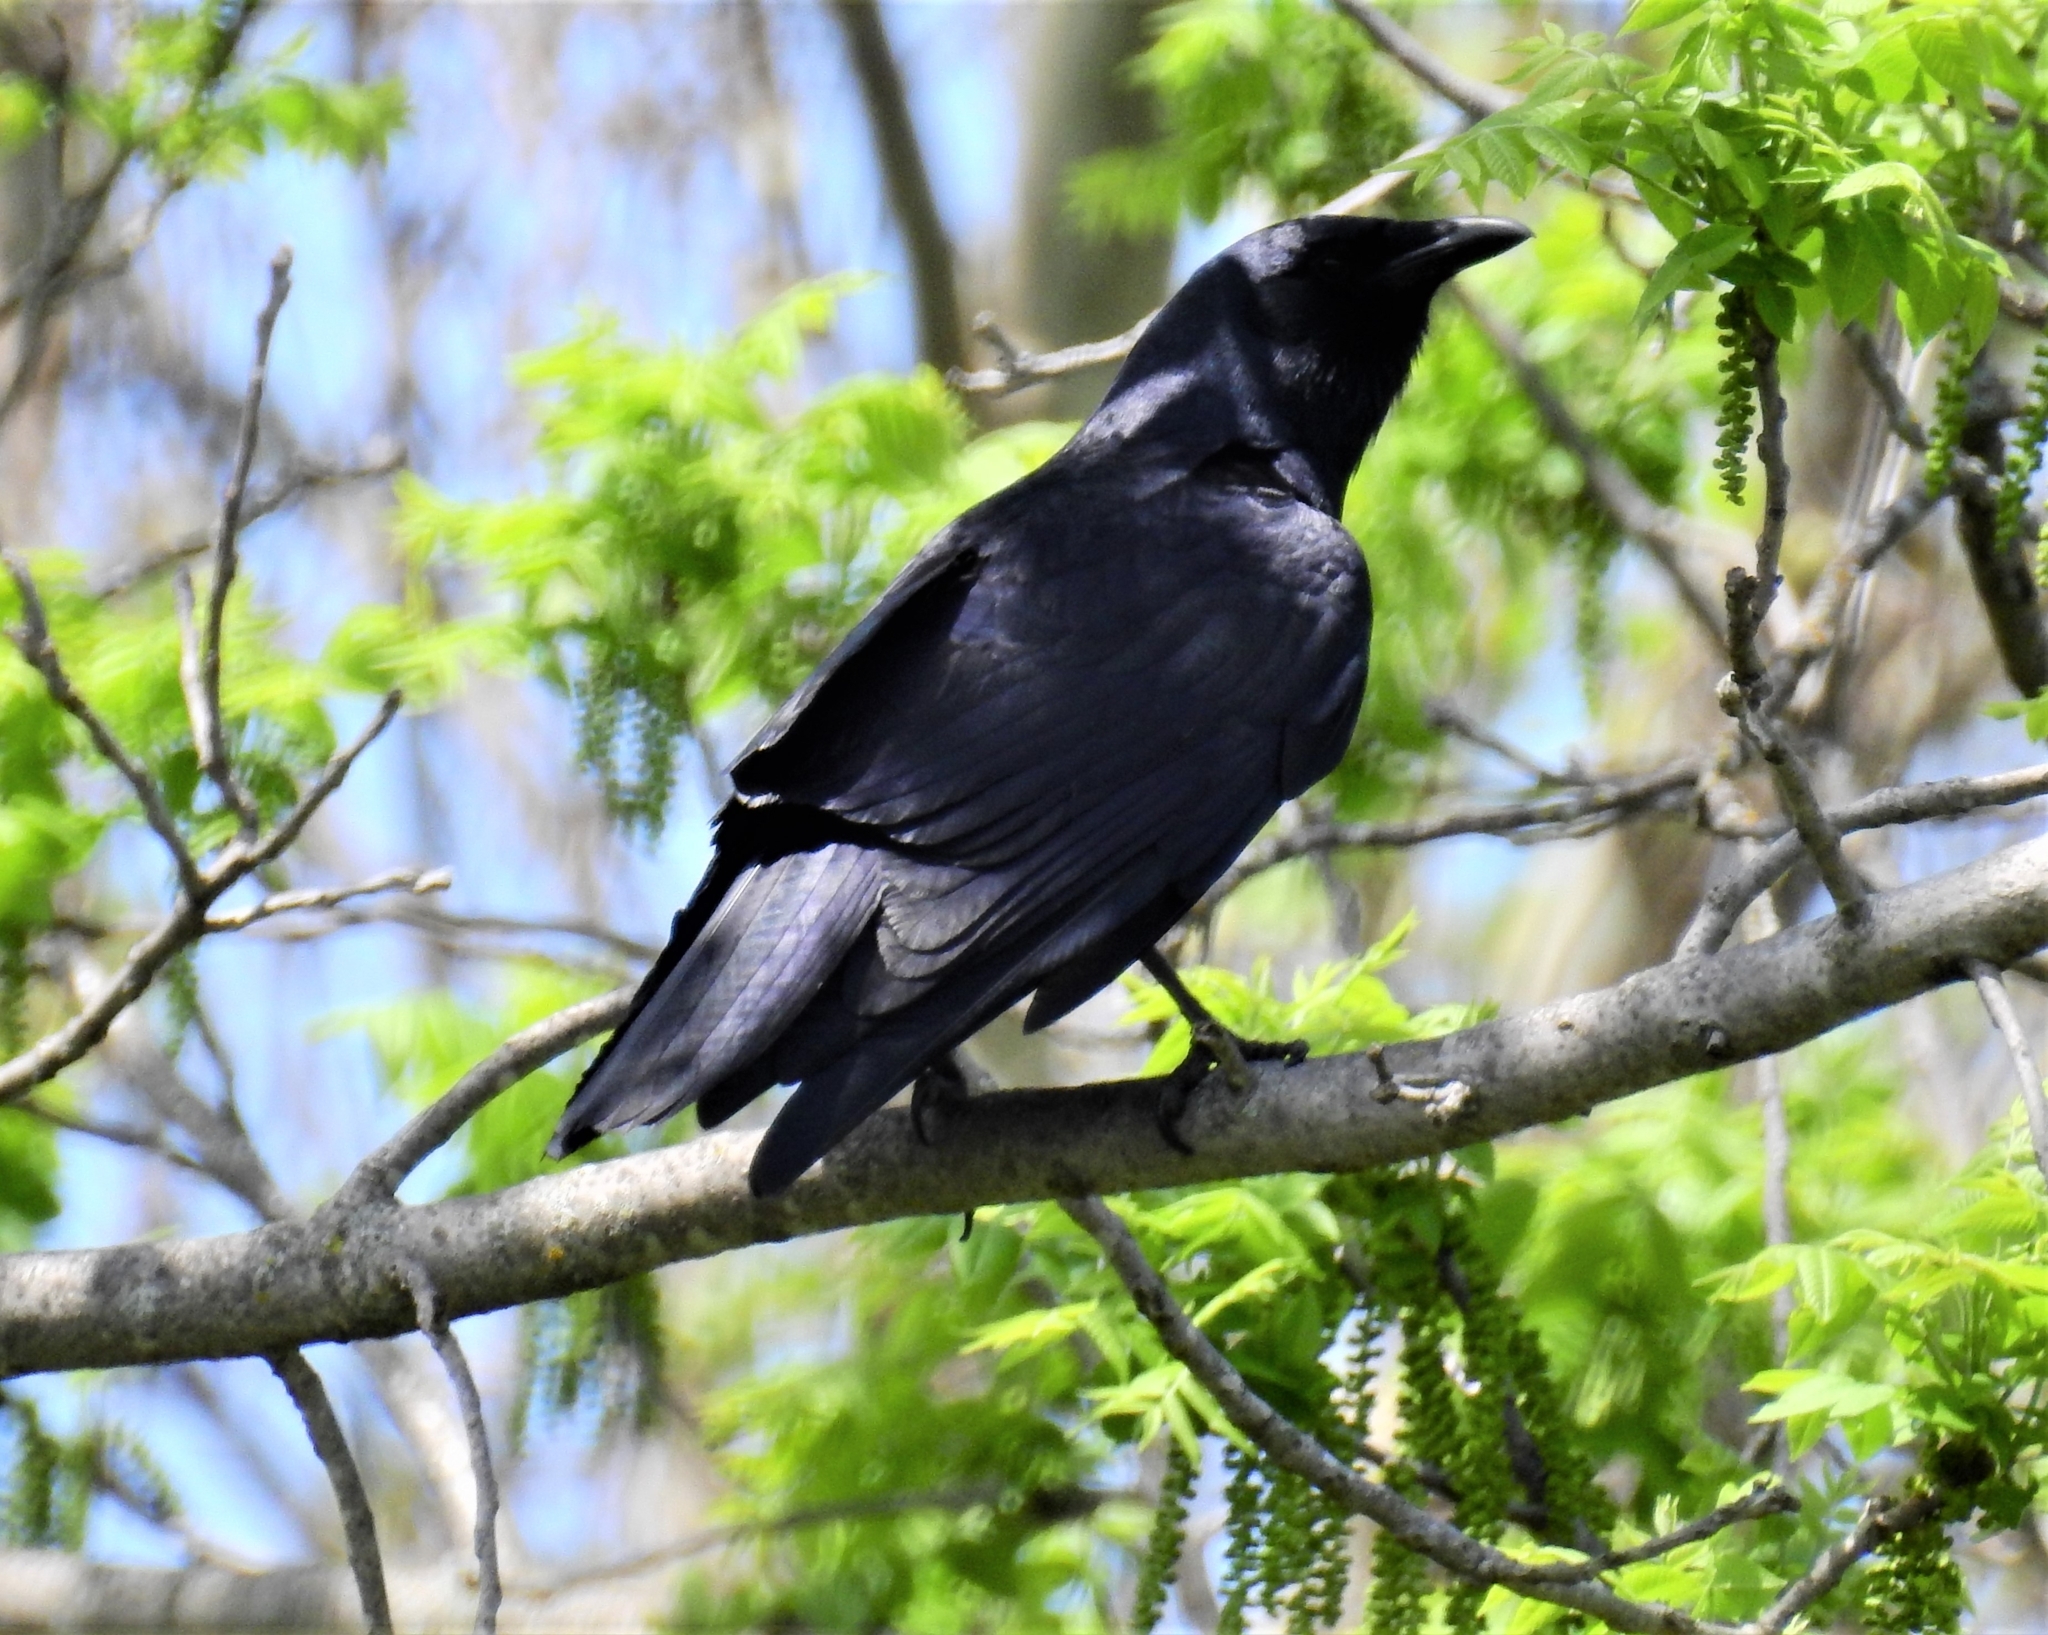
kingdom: Animalia
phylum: Chordata
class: Aves
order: Passeriformes
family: Corvidae
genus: Corvus
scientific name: Corvus ossifragus
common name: Fish crow
